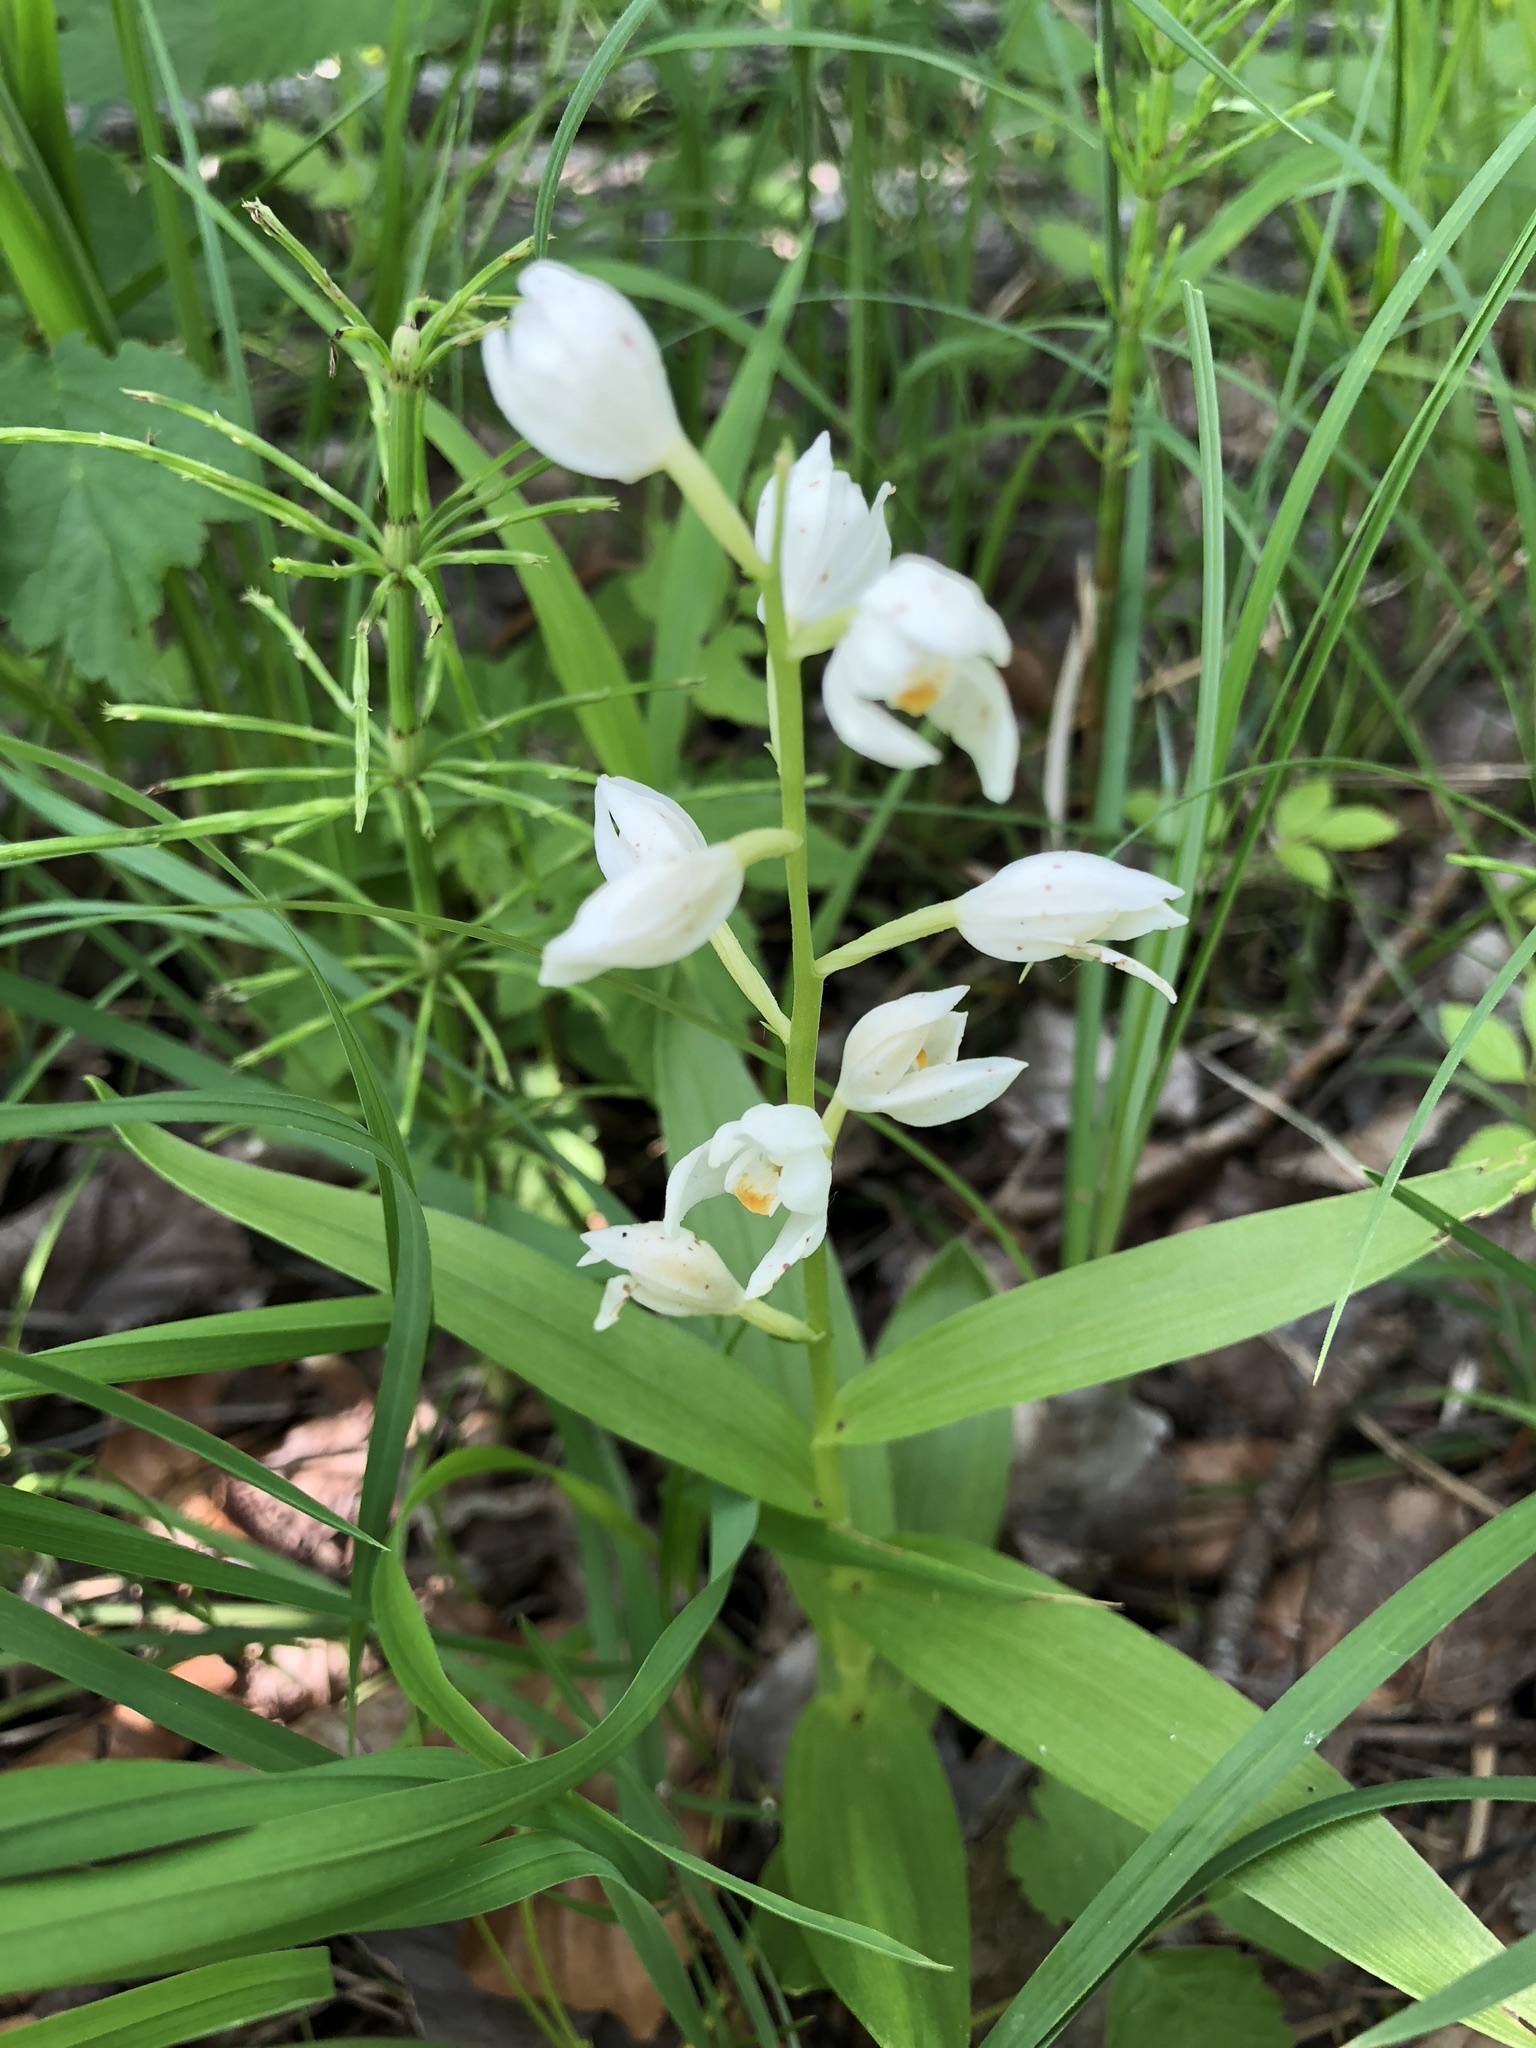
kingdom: Plantae
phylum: Tracheophyta
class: Liliopsida
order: Asparagales
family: Orchidaceae
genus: Cephalanthera
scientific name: Cephalanthera longifolia
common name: Narrow-leaved helleborine
